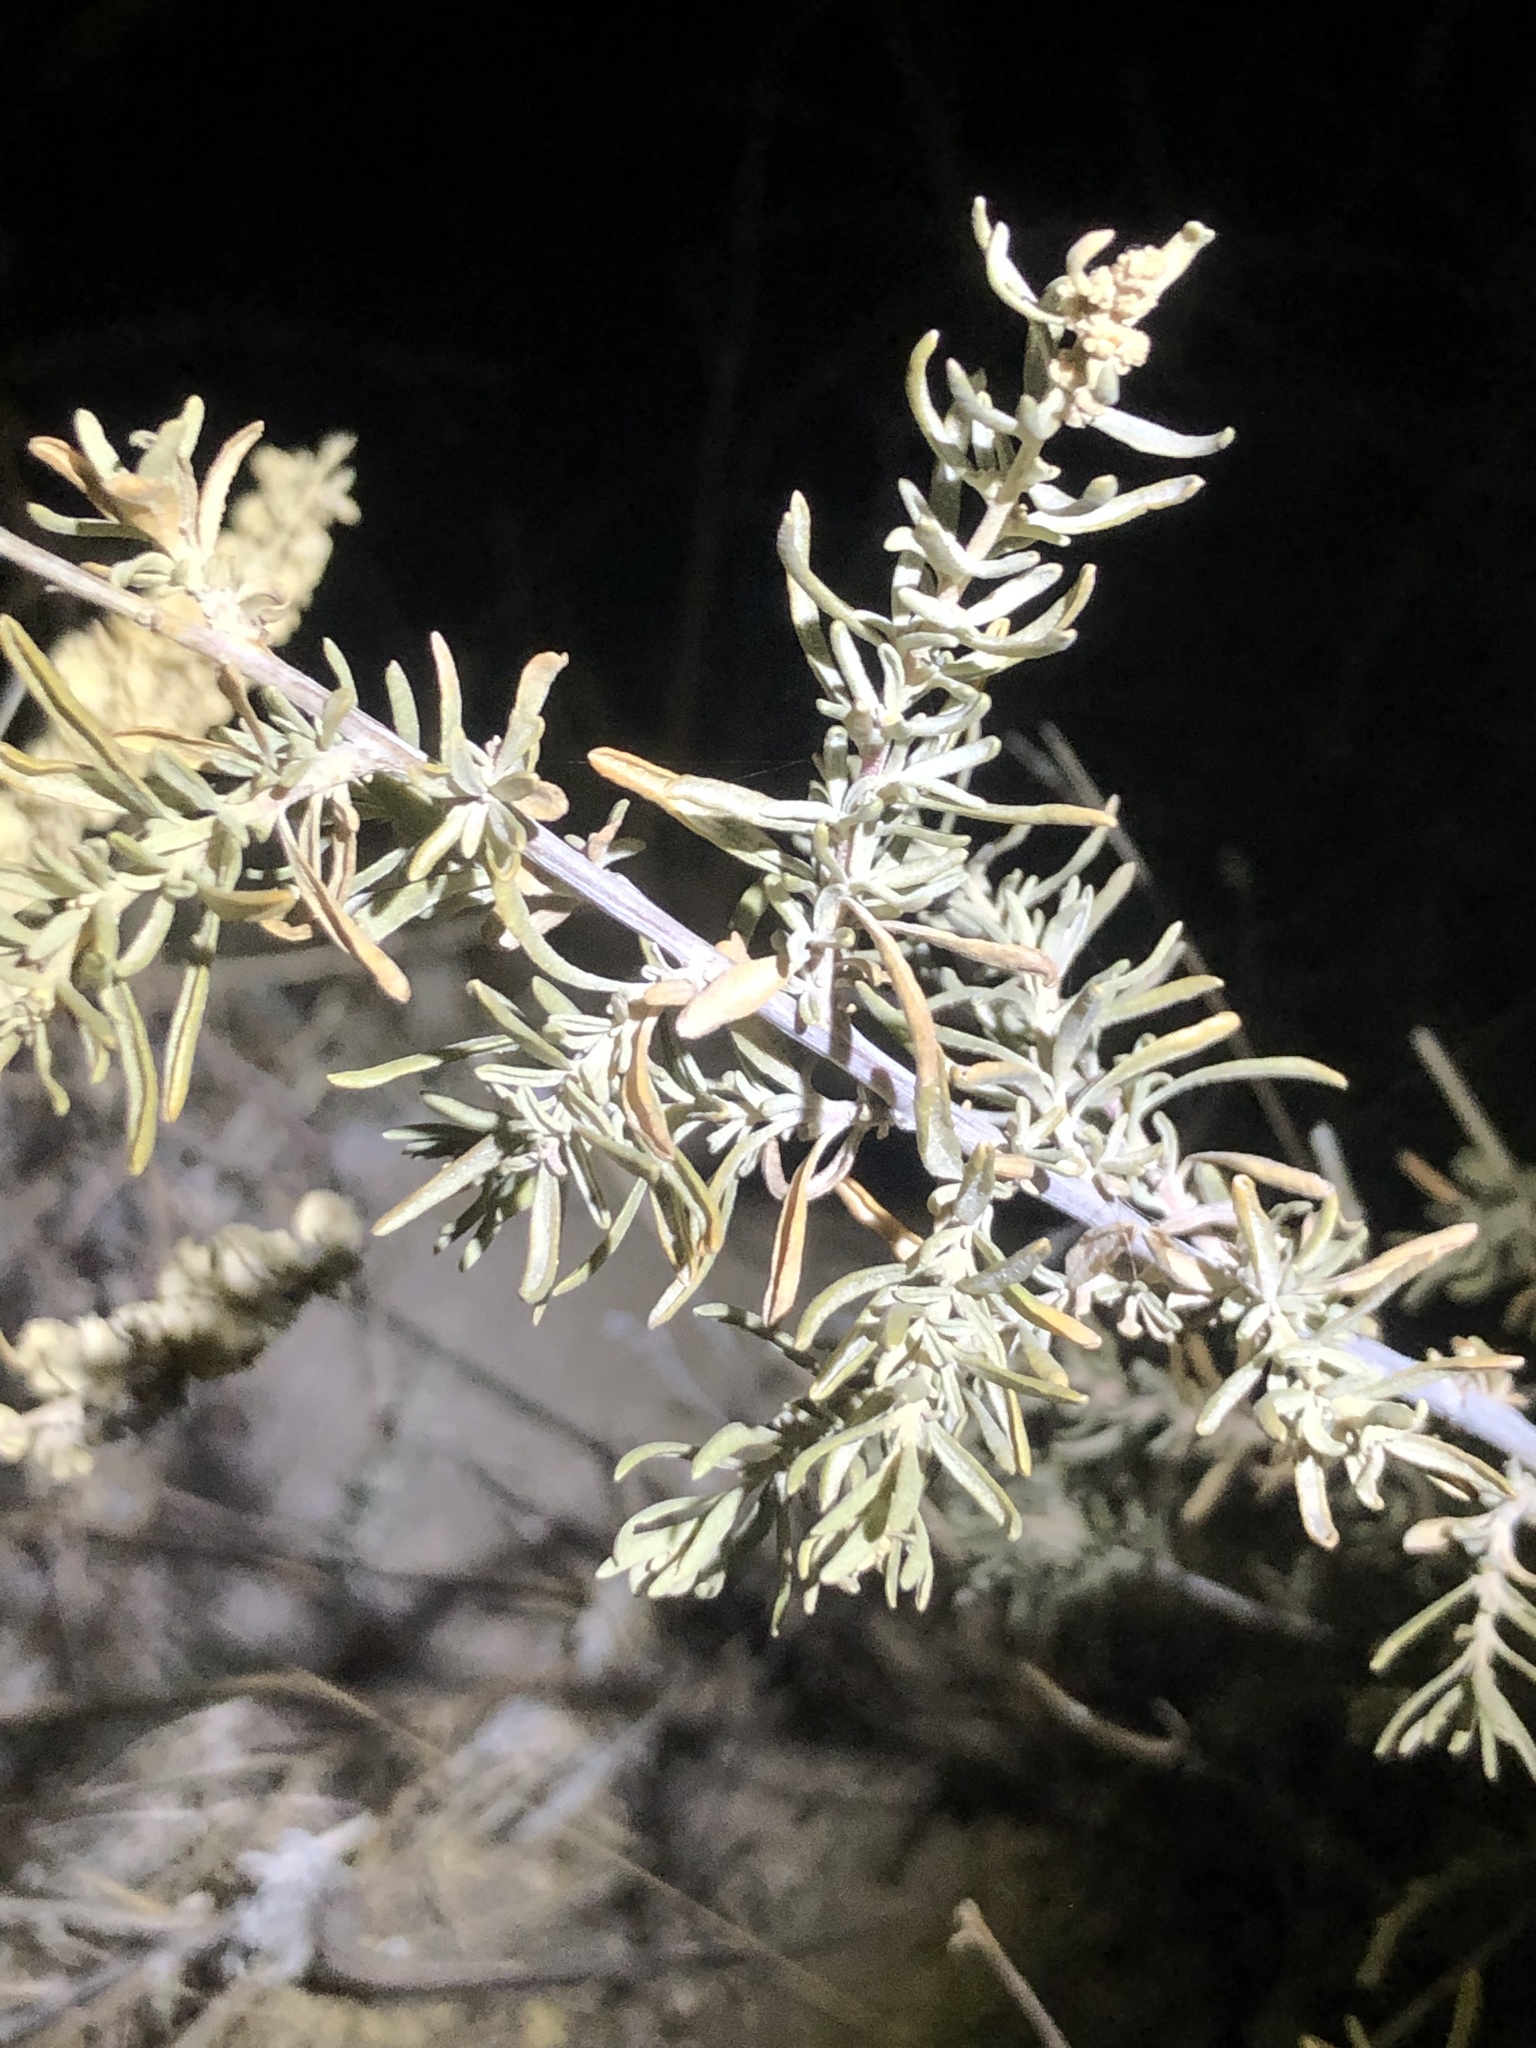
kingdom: Plantae
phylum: Tracheophyta
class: Magnoliopsida
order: Caryophyllales
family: Amaranthaceae
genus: Atriplex
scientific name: Atriplex canescens
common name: Four-wing saltbush
